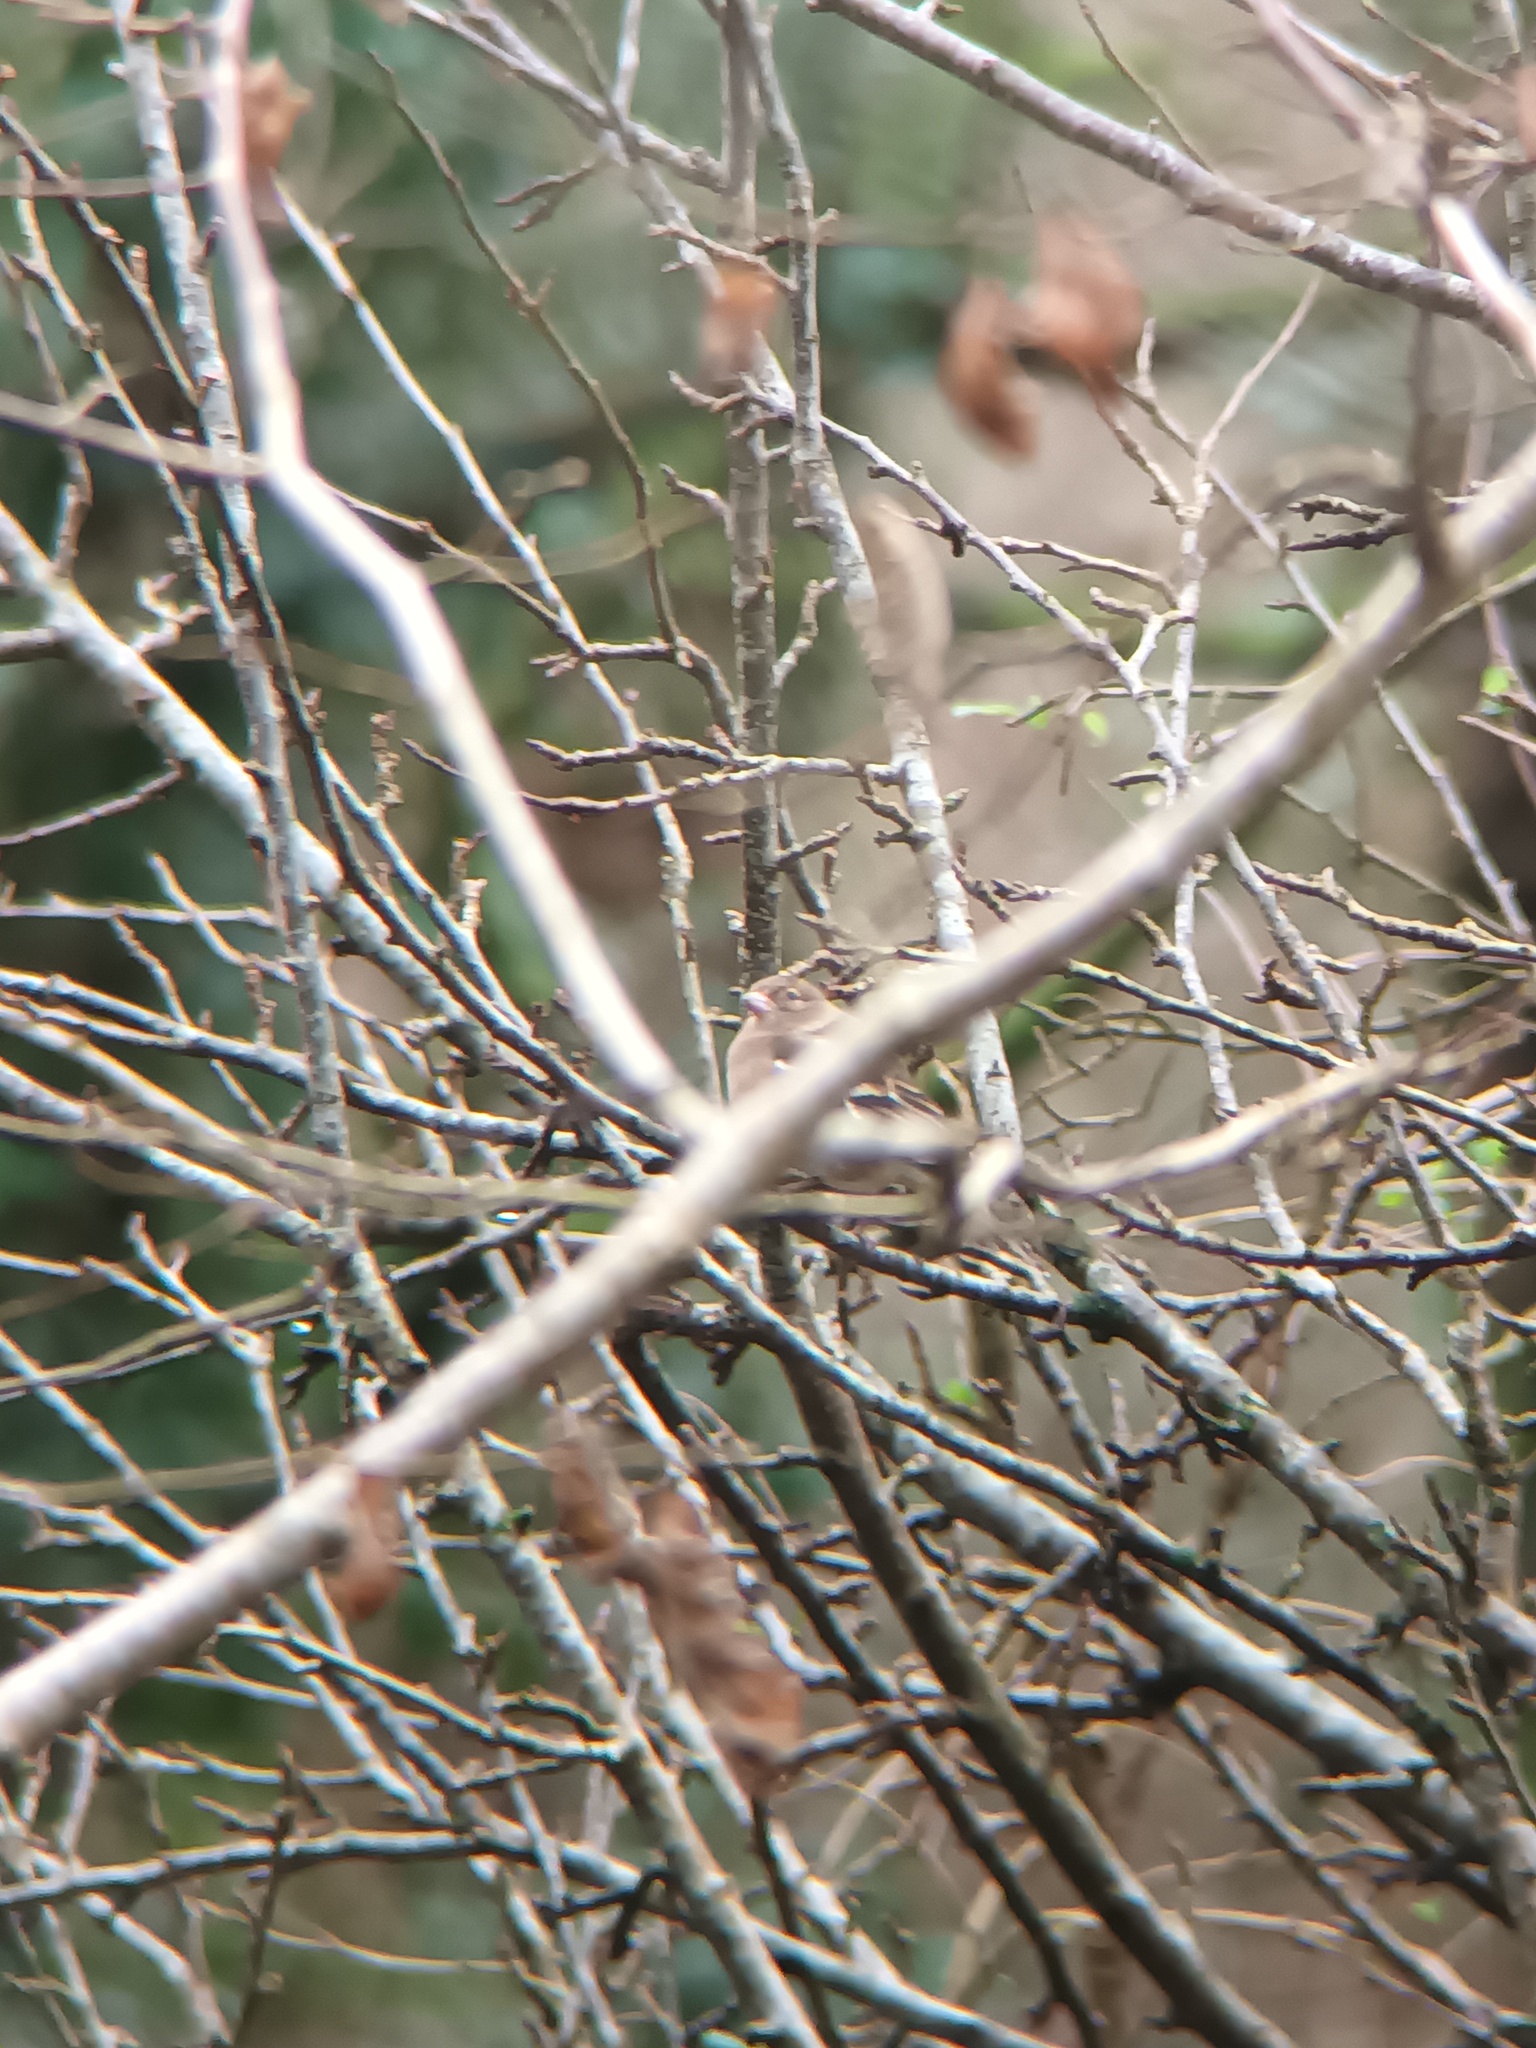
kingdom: Animalia
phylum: Chordata
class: Aves
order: Passeriformes
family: Fringillidae
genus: Fringilla
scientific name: Fringilla coelebs
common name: Common chaffinch
